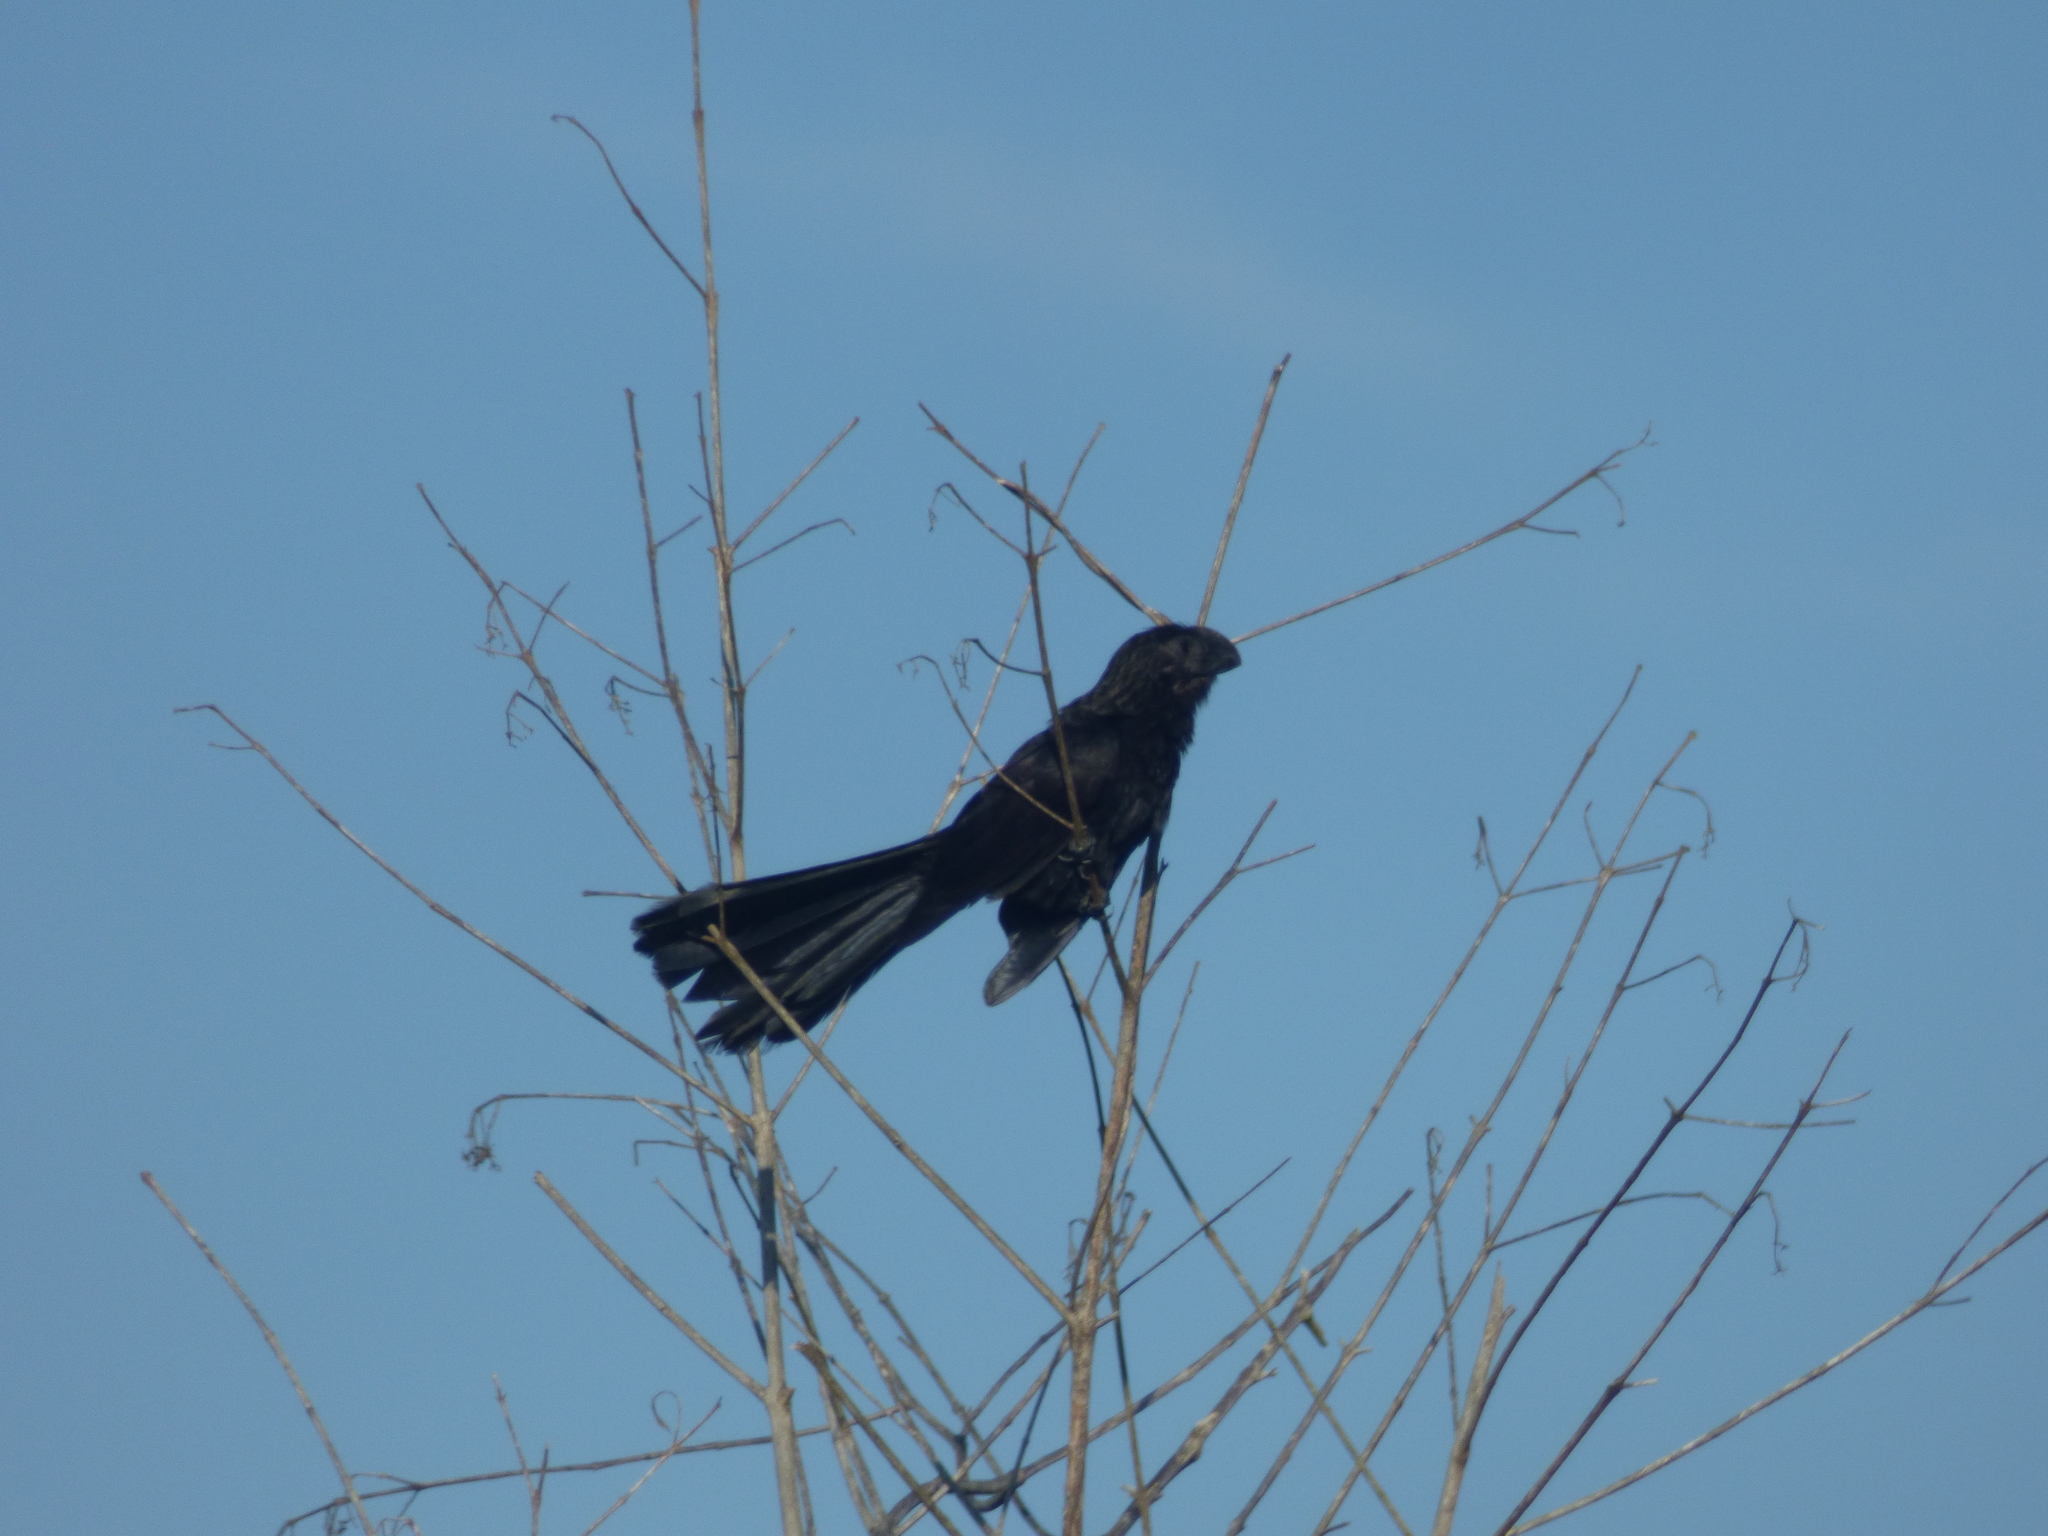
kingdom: Animalia
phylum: Chordata
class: Aves
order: Cuculiformes
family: Cuculidae
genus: Crotophaga
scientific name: Crotophaga ani
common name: Smooth-billed ani
